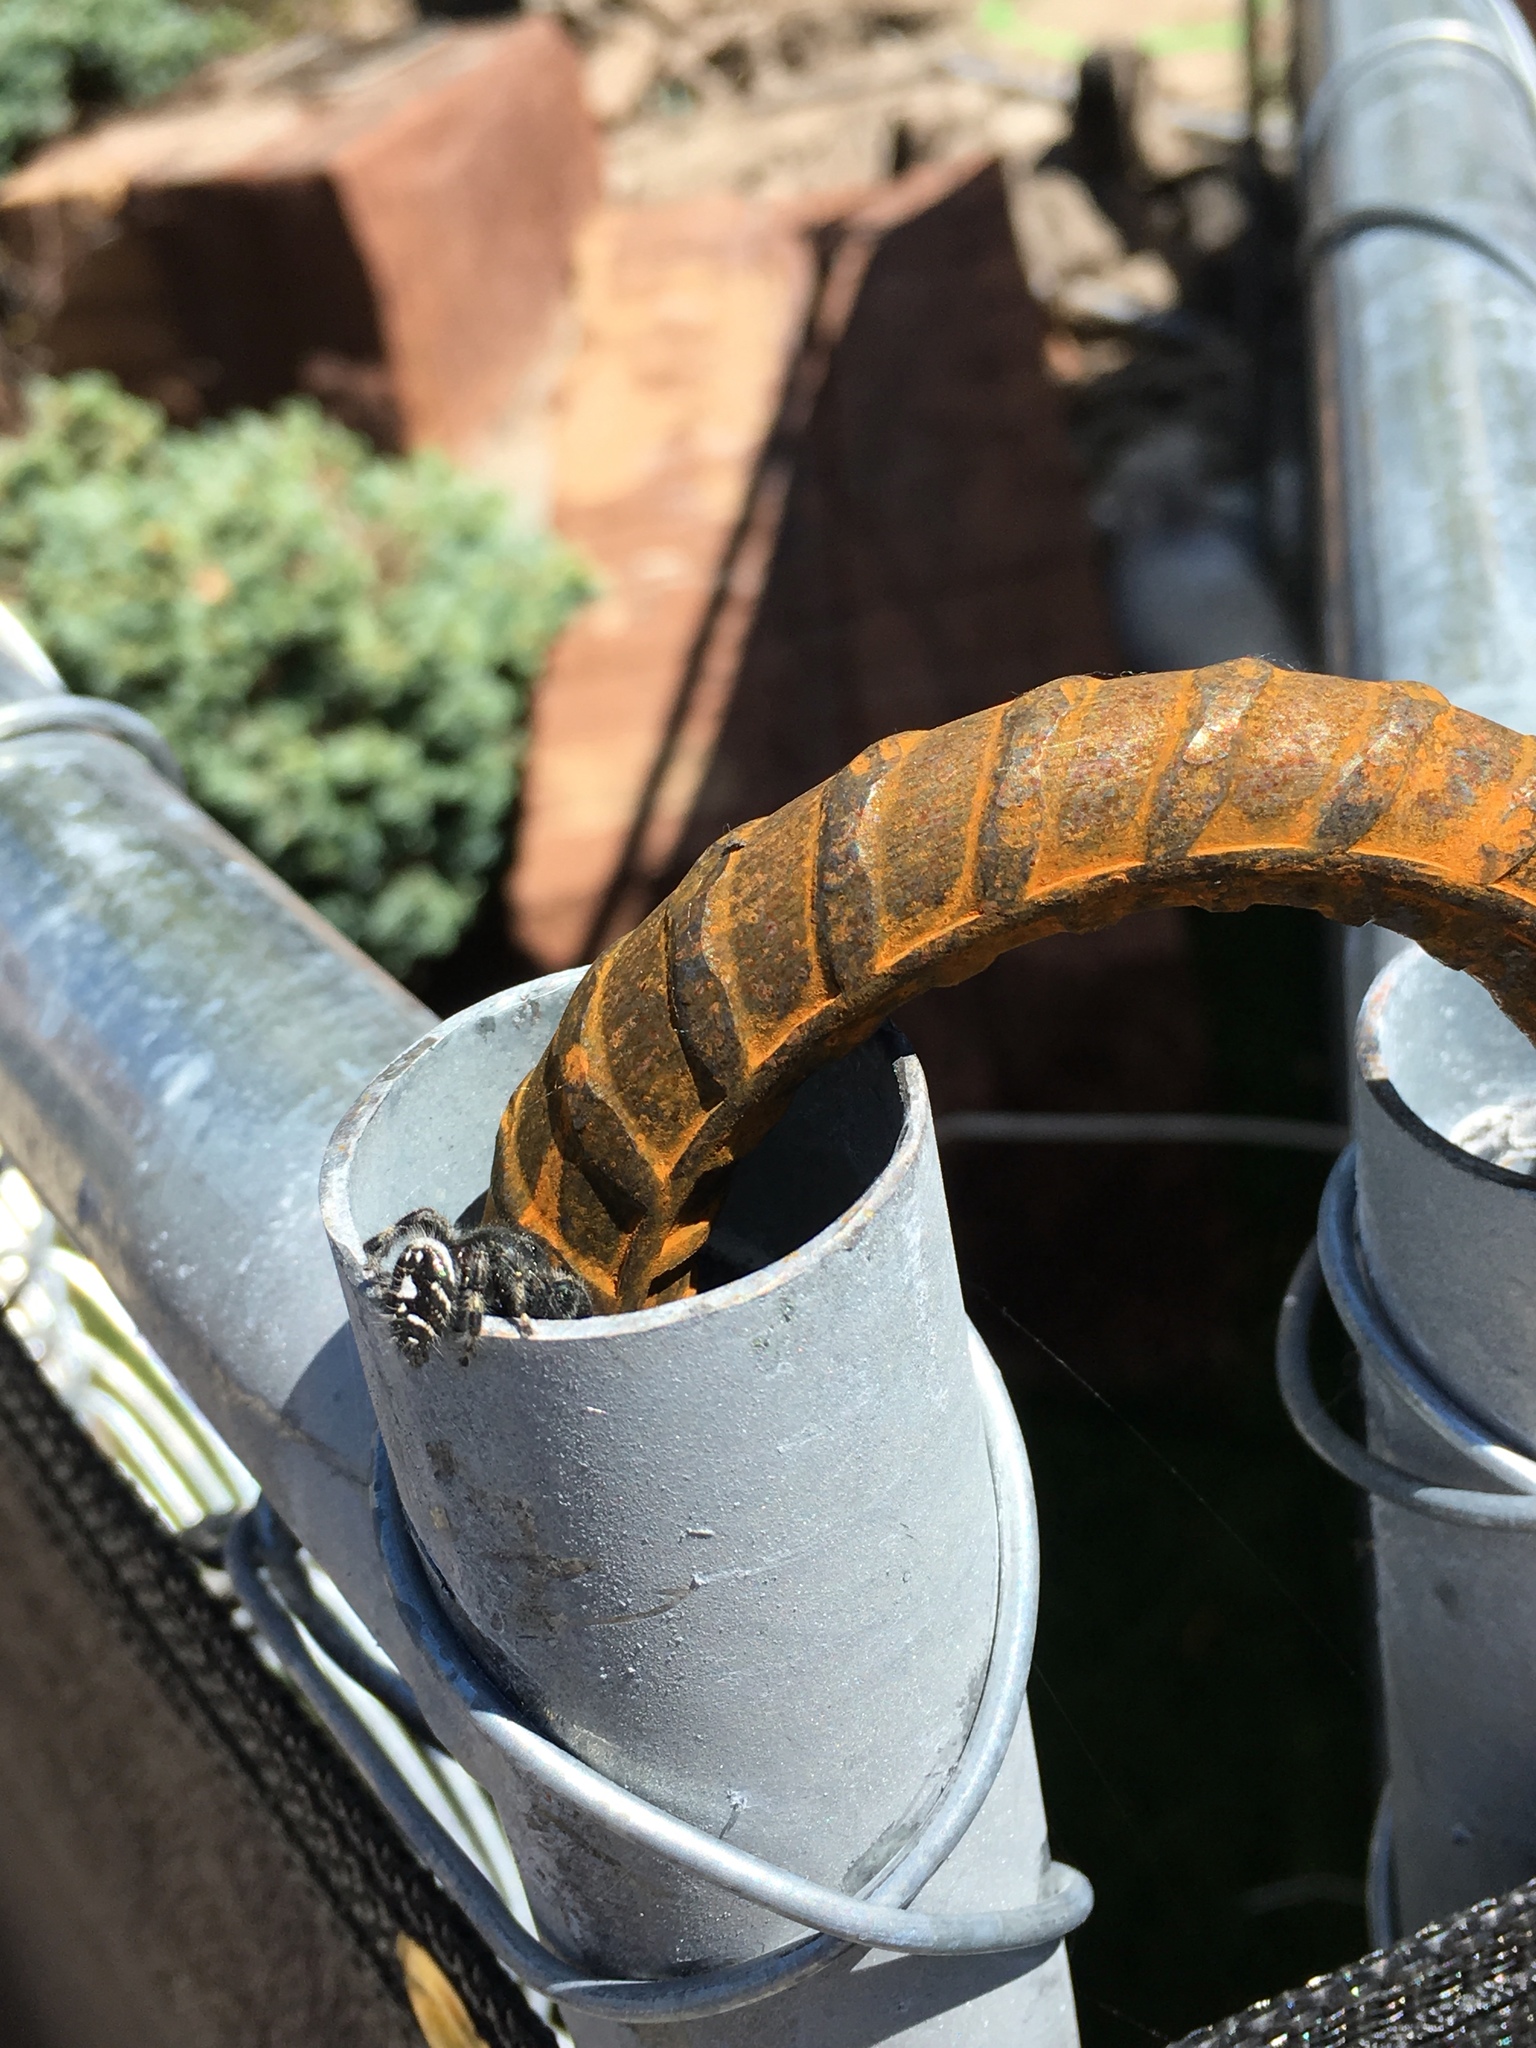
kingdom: Animalia
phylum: Arthropoda
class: Arachnida
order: Araneae
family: Salticidae
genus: Phidippus
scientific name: Phidippus audax
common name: Bold jumper
